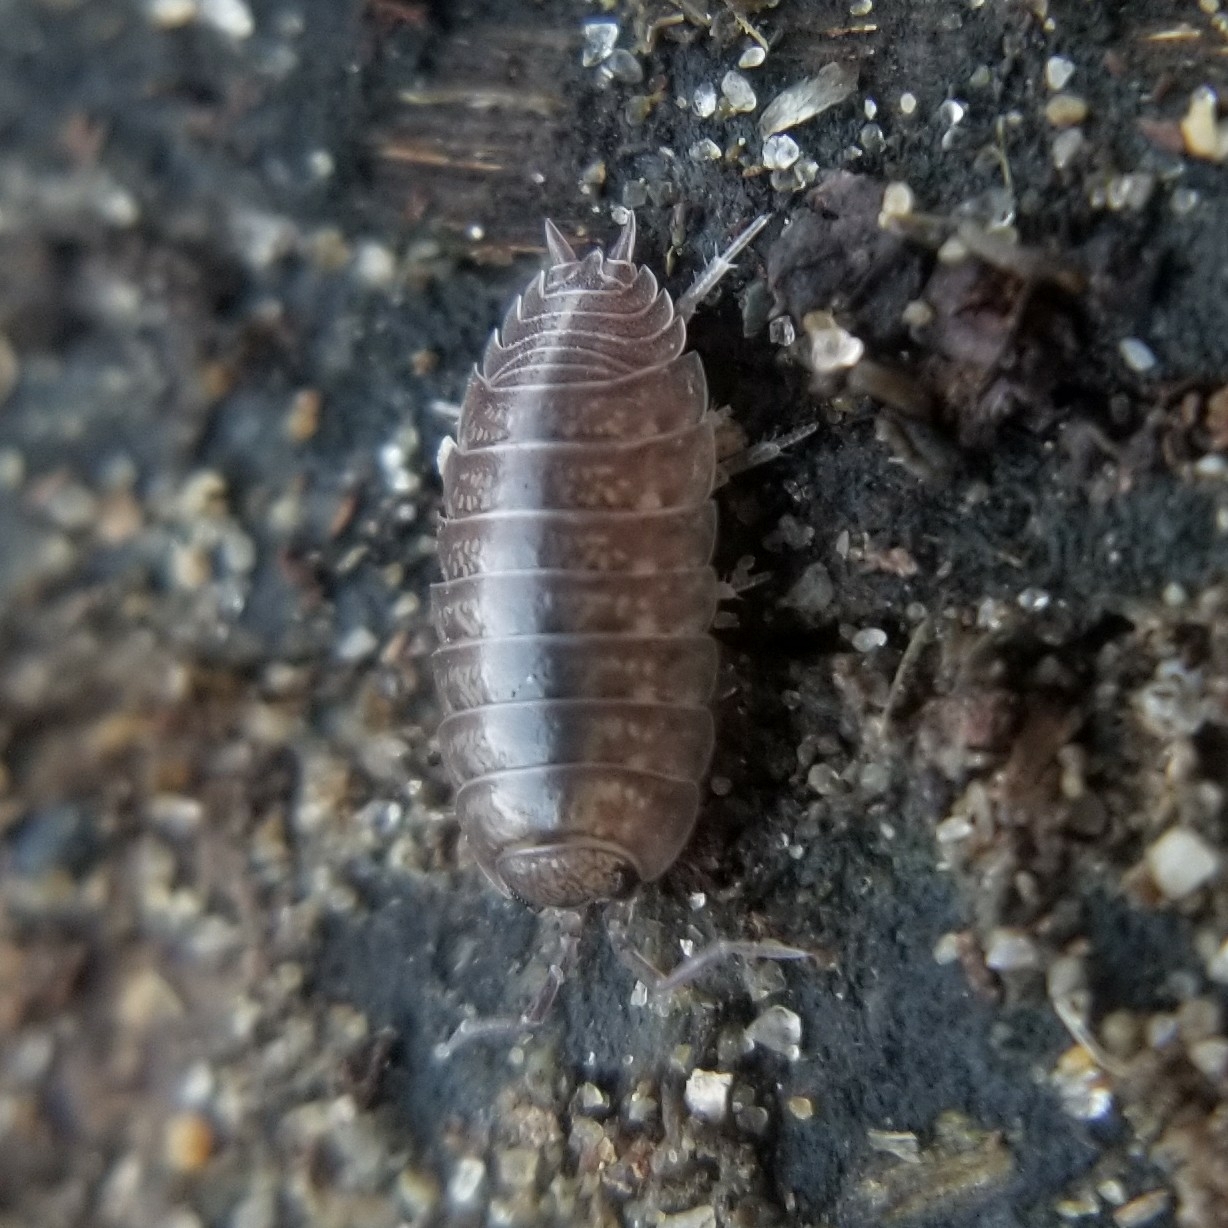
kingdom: Animalia
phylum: Arthropoda
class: Malacostraca
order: Isopoda
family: Porcellionidae
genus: Porcellio
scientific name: Porcellio laevis
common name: Swift woodlouse
